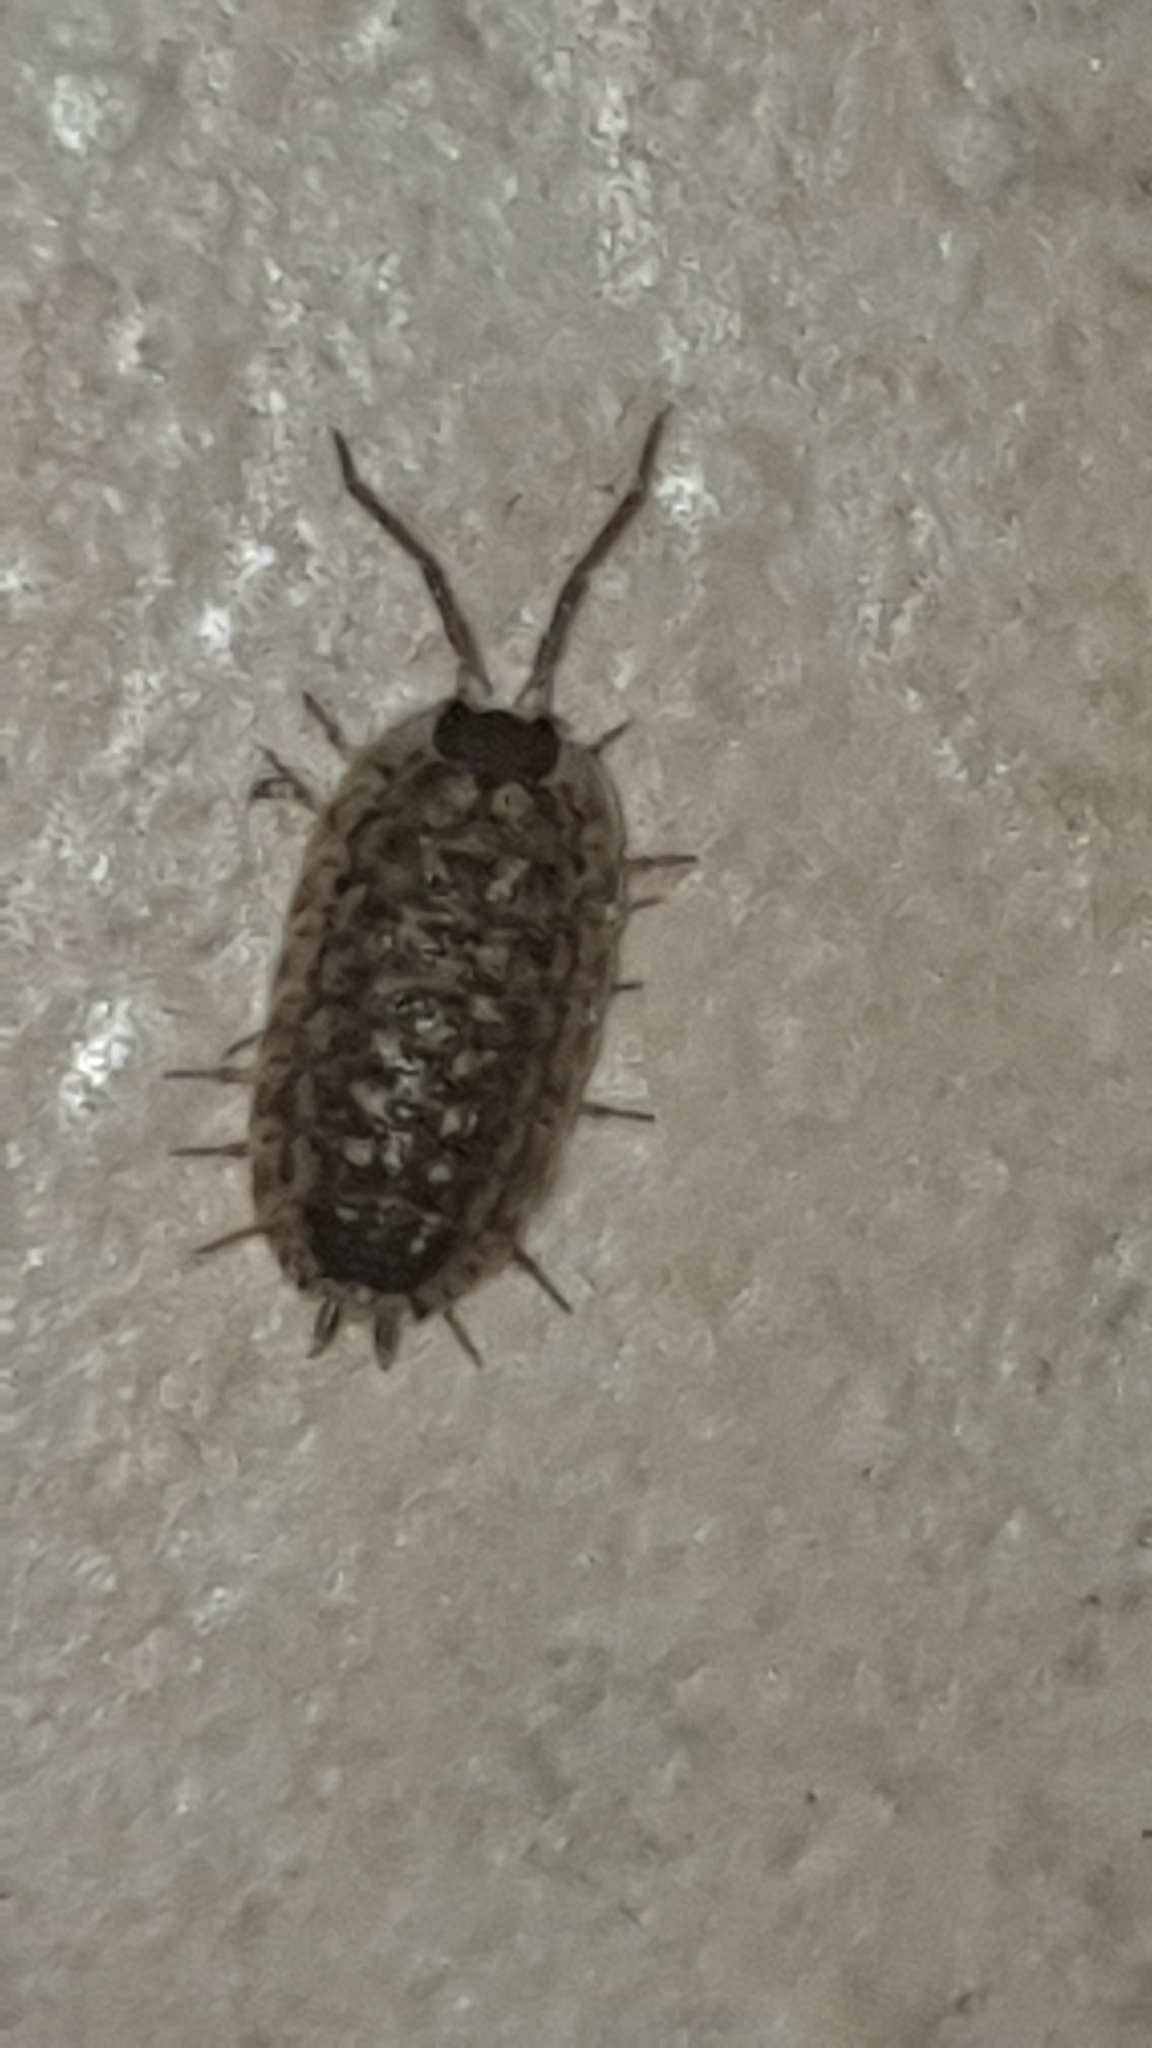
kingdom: Animalia
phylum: Arthropoda
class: Malacostraca
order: Isopoda
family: Porcellionidae
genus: Porcellio
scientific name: Porcellio spinicornis
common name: Painted woodlouse
